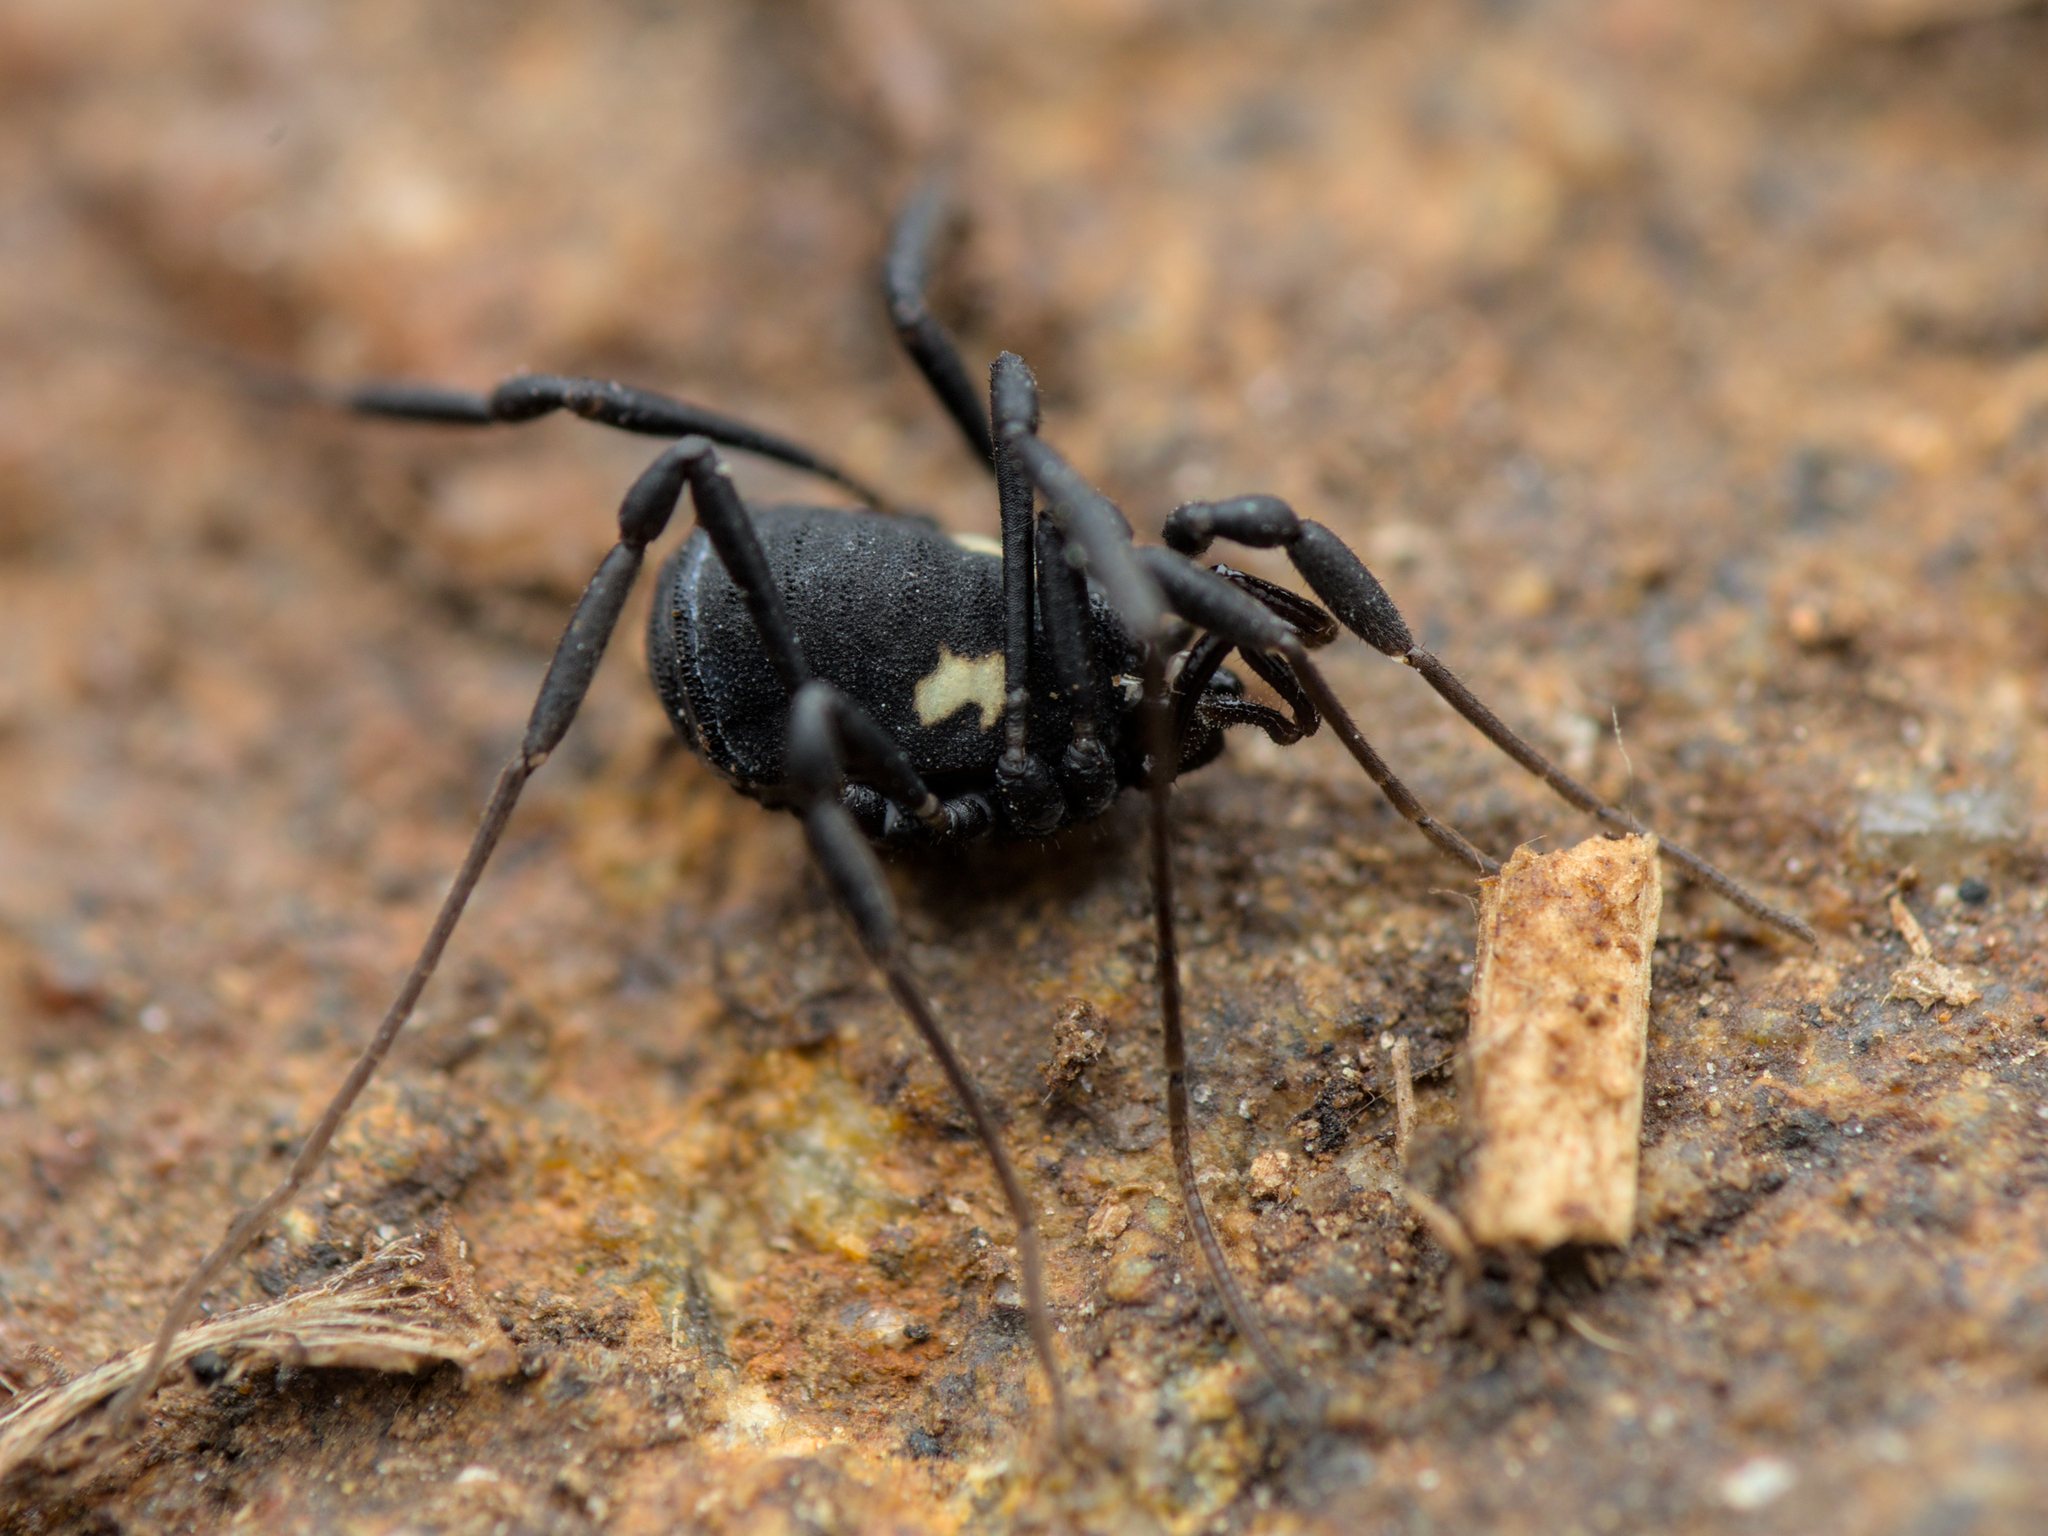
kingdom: Animalia
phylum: Arthropoda
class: Arachnida
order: Opiliones
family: Nemastomatidae
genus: Nemastoma
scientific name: Nemastoma bimaculatum
